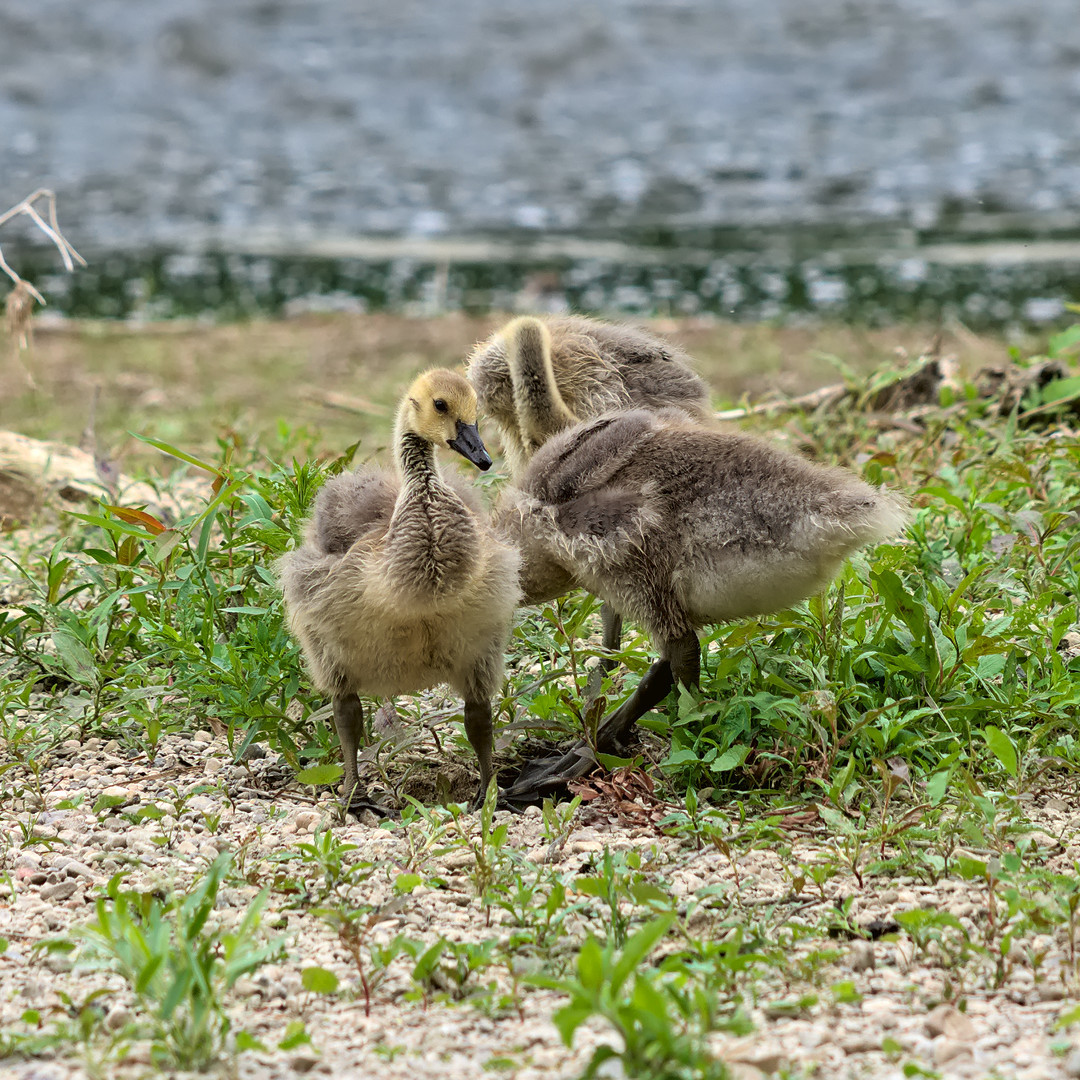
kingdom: Animalia
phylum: Chordata
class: Aves
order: Anseriformes
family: Anatidae
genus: Branta
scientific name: Branta canadensis
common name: Canada goose
